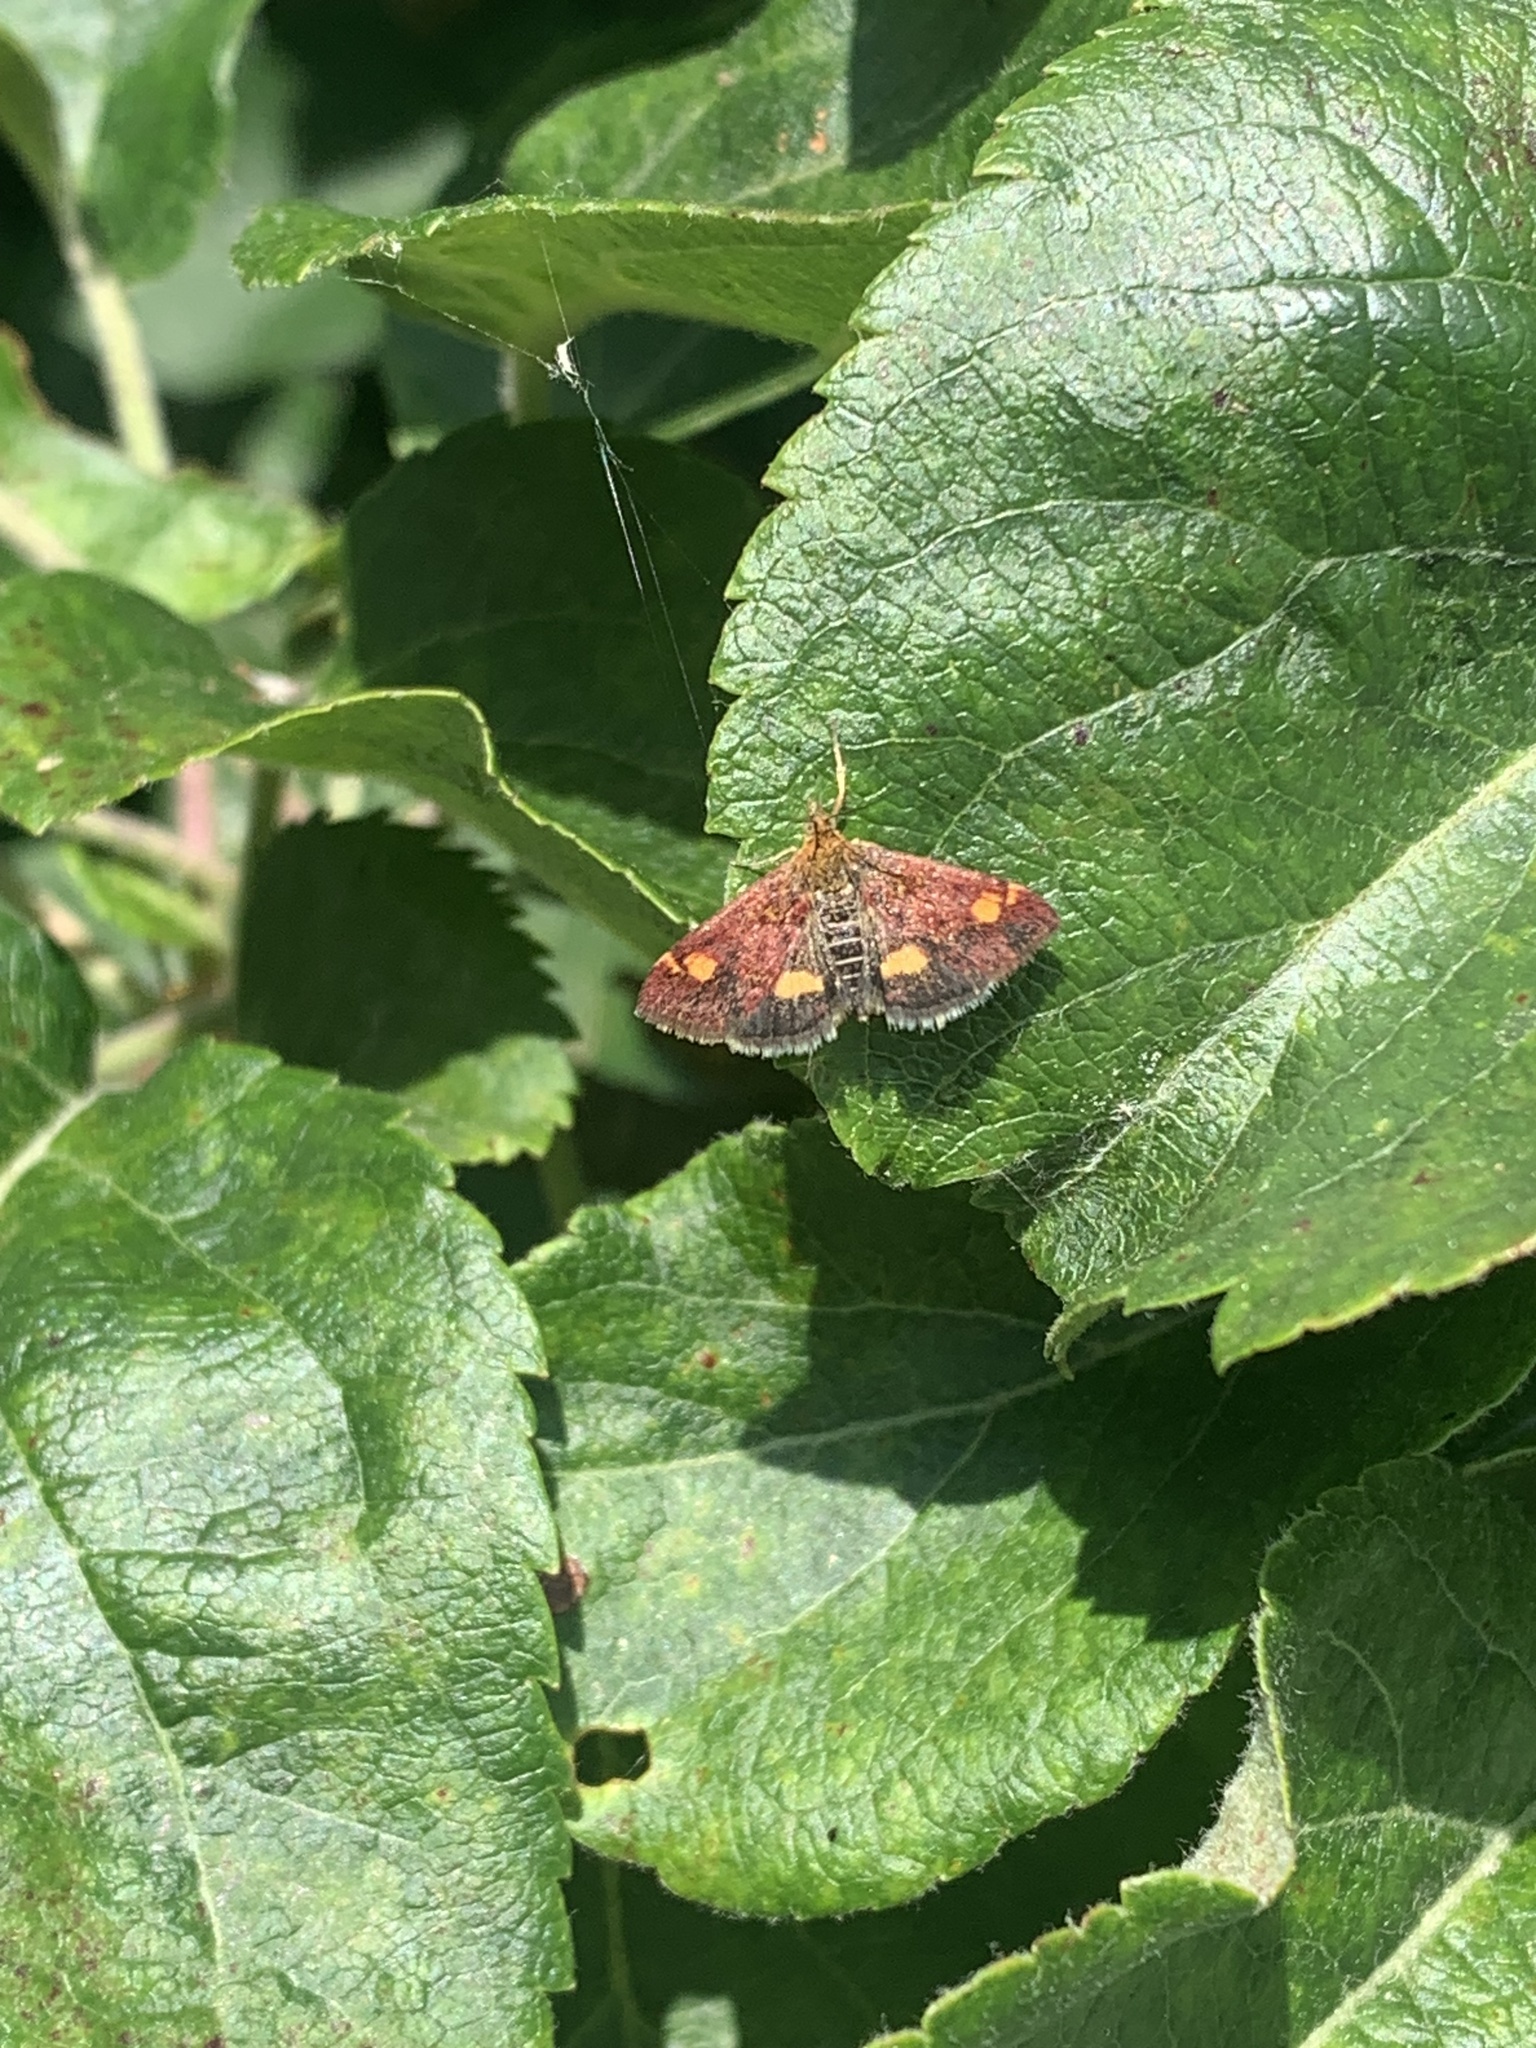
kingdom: Animalia
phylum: Arthropoda
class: Insecta
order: Lepidoptera
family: Crambidae
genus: Pyrausta
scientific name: Pyrausta aurata
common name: Small purple & gold
